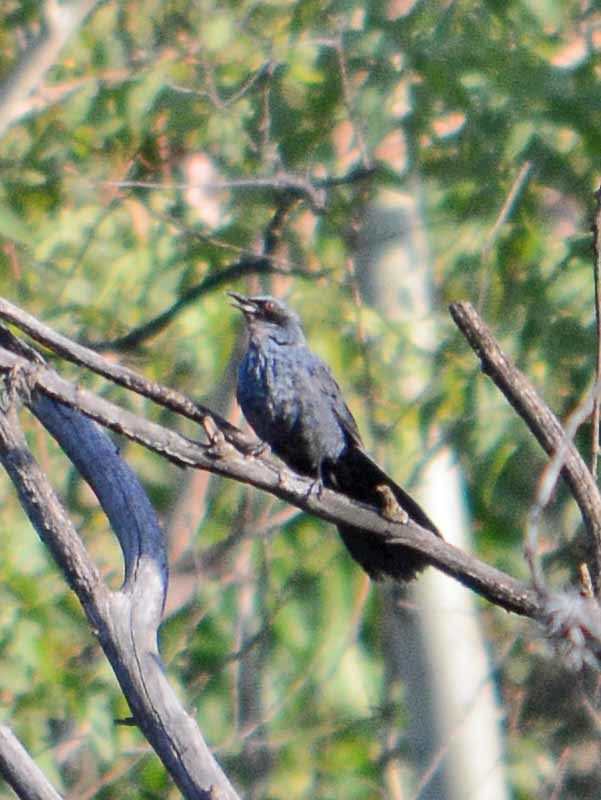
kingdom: Animalia
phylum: Chordata
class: Aves
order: Passeriformes
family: Mimidae
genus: Melanotis
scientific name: Melanotis caerulescens
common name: Blue mockingbird
